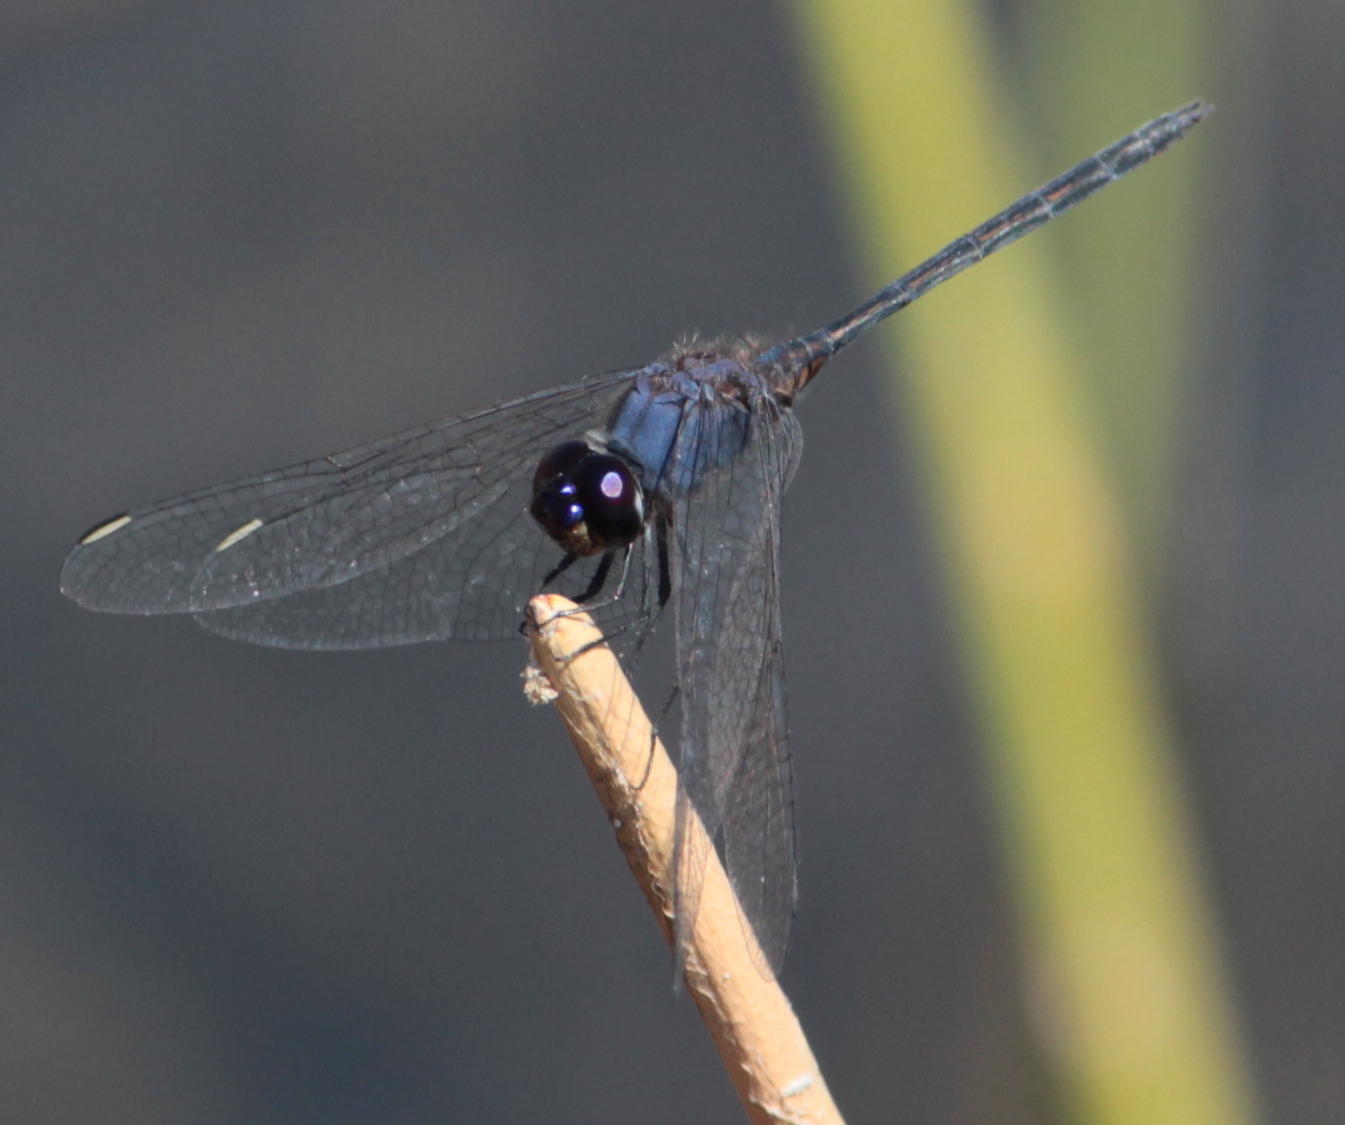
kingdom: Animalia
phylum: Arthropoda
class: Insecta
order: Odonata
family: Libellulidae
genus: Trithemis
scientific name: Trithemis hecate
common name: Silhouette dropwing
